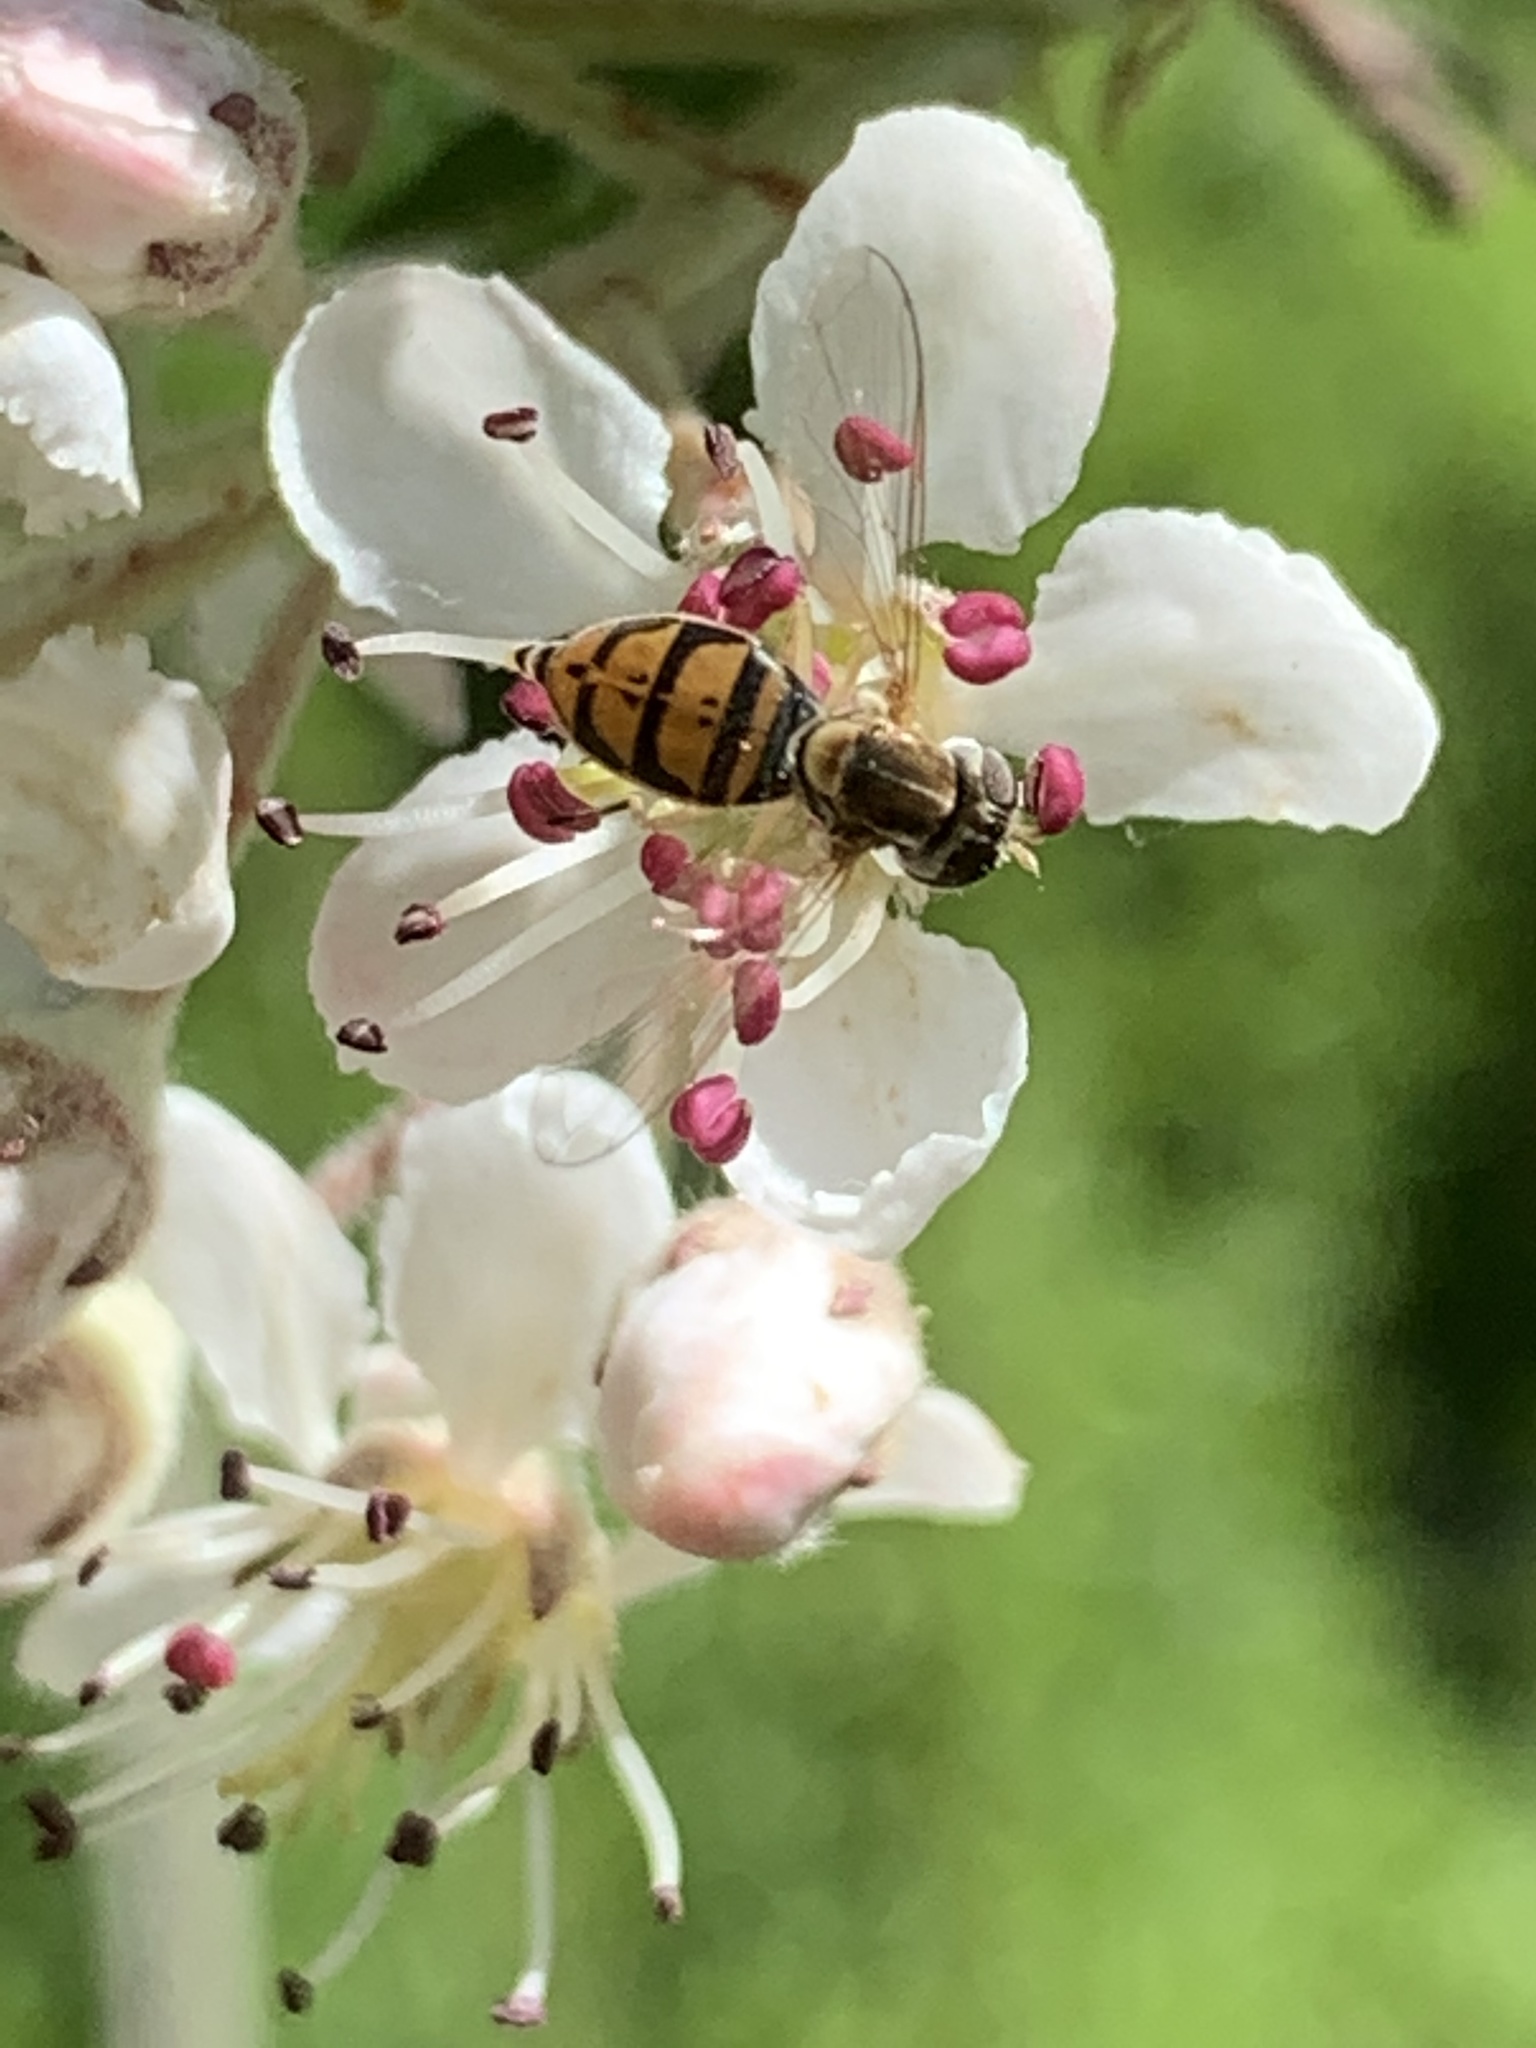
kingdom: Animalia
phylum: Arthropoda
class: Insecta
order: Diptera
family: Syrphidae
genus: Toxomerus
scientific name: Toxomerus marginatus
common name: Syrphid fly
